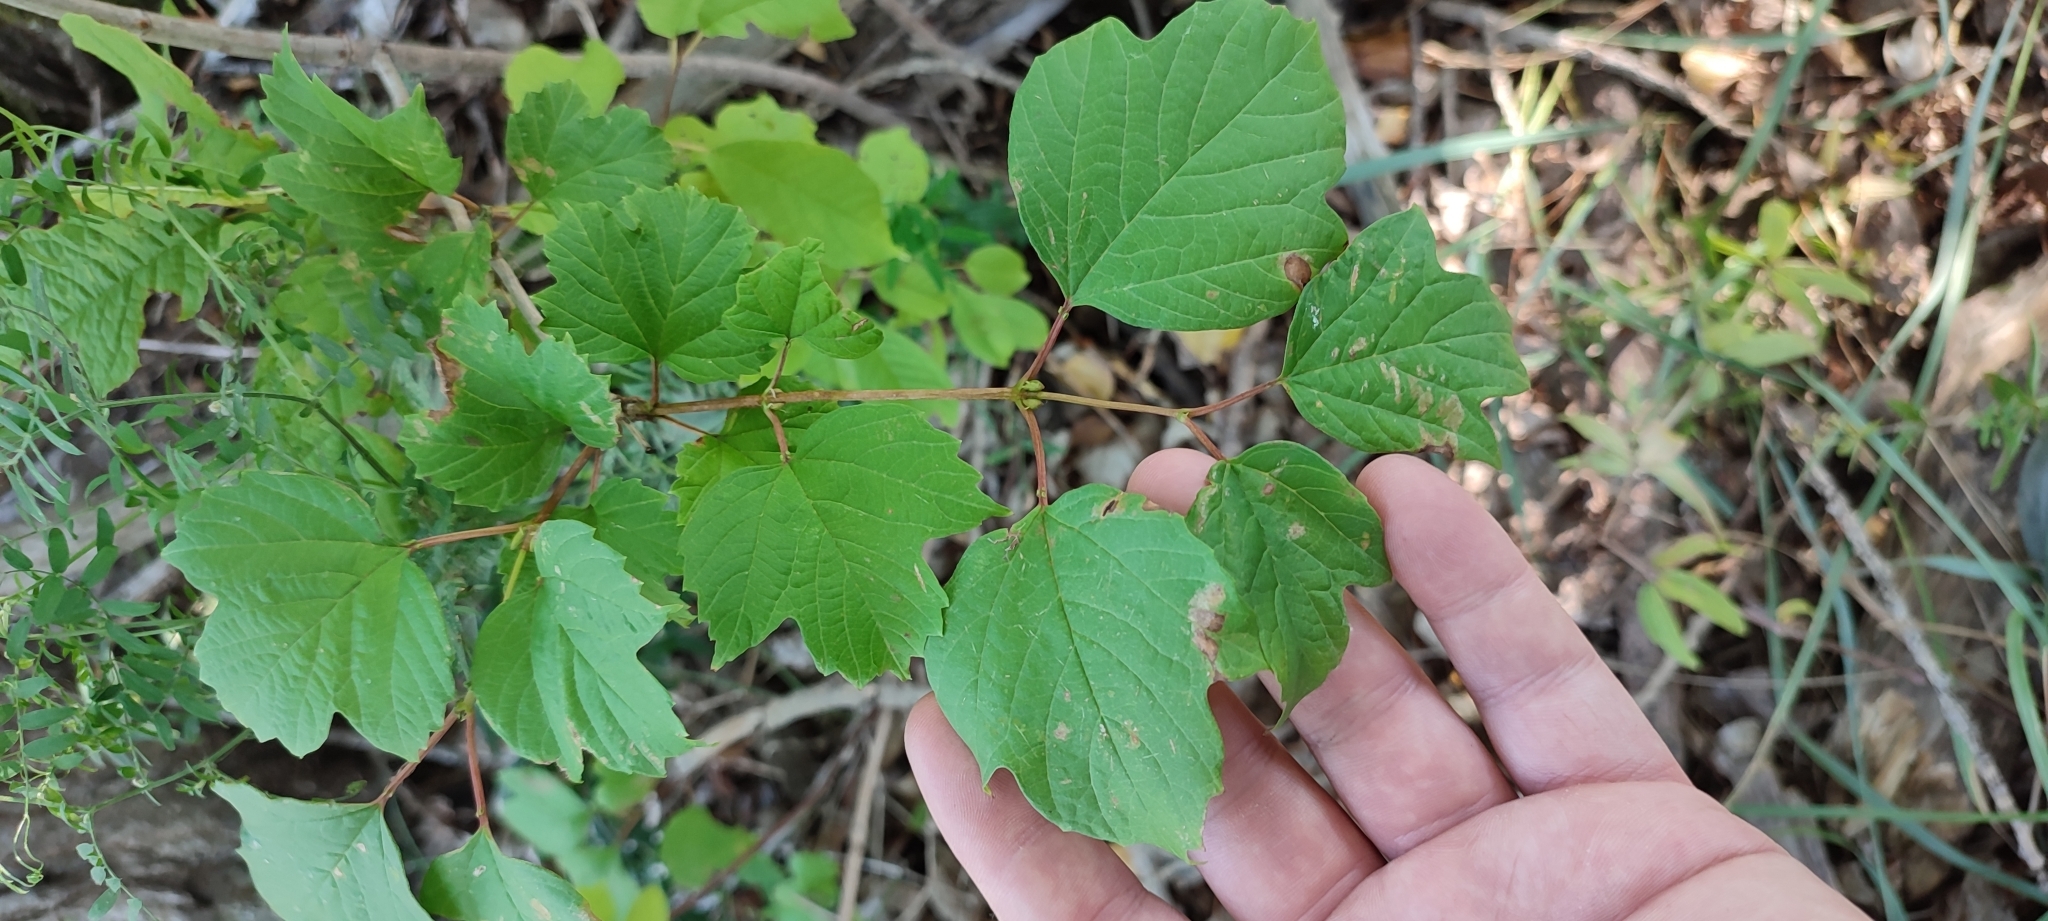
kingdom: Plantae
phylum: Tracheophyta
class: Magnoliopsida
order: Dipsacales
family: Viburnaceae
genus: Viburnum
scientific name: Viburnum opulus
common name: Guelder-rose
